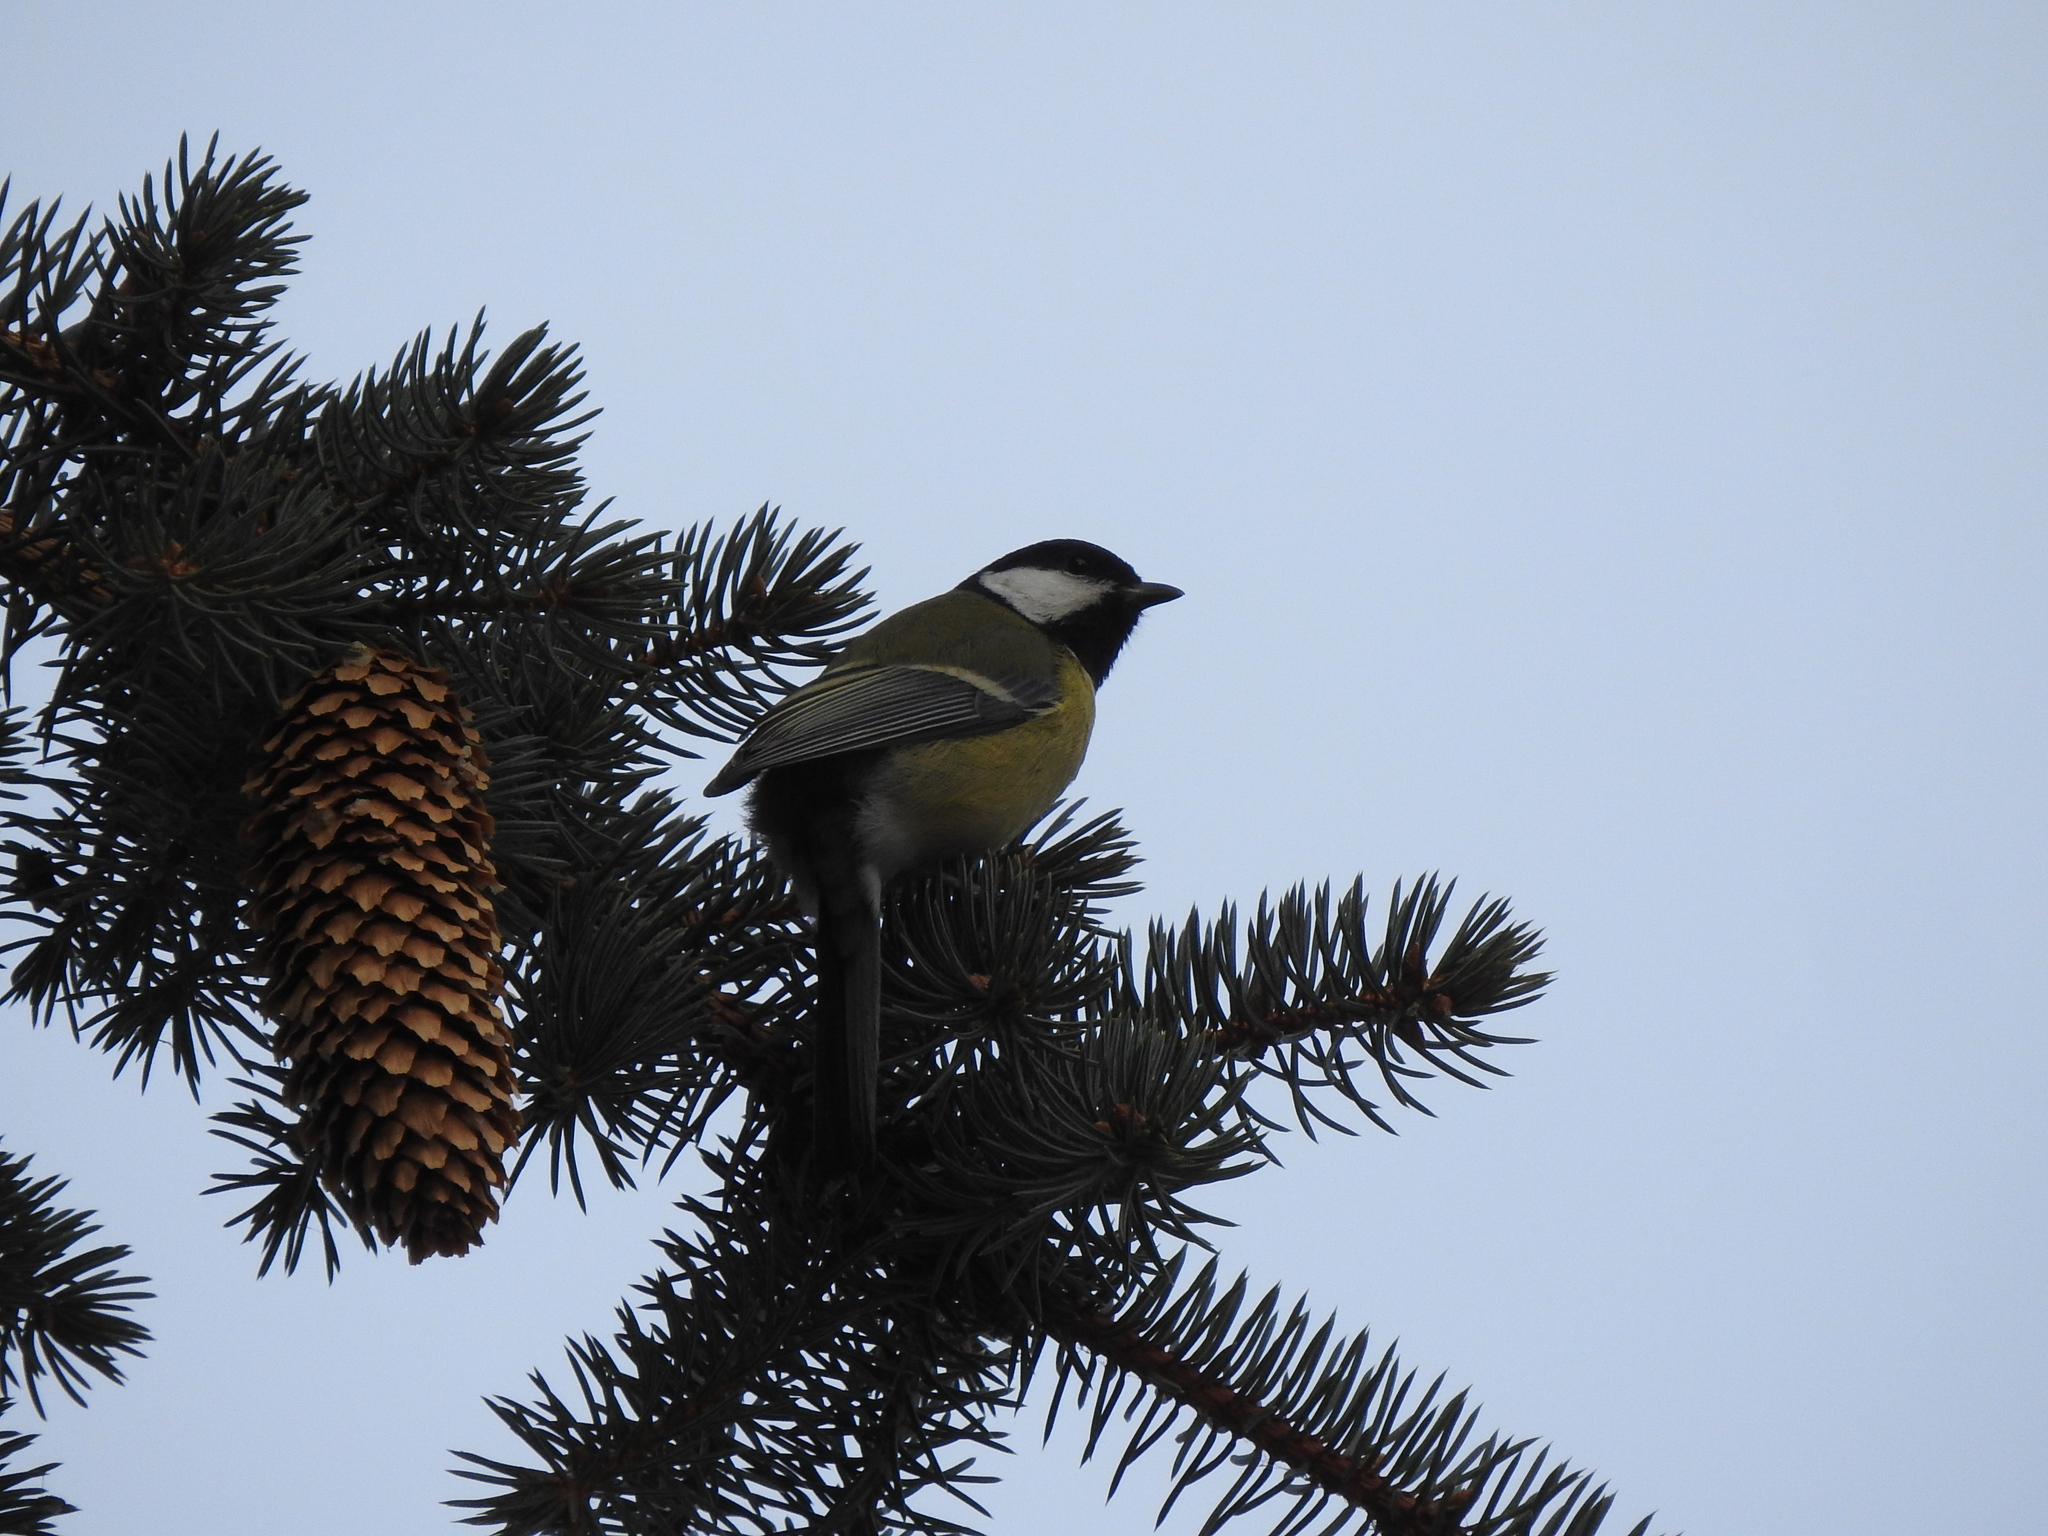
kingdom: Animalia
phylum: Chordata
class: Aves
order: Passeriformes
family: Paridae
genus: Parus
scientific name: Parus major
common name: Great tit
